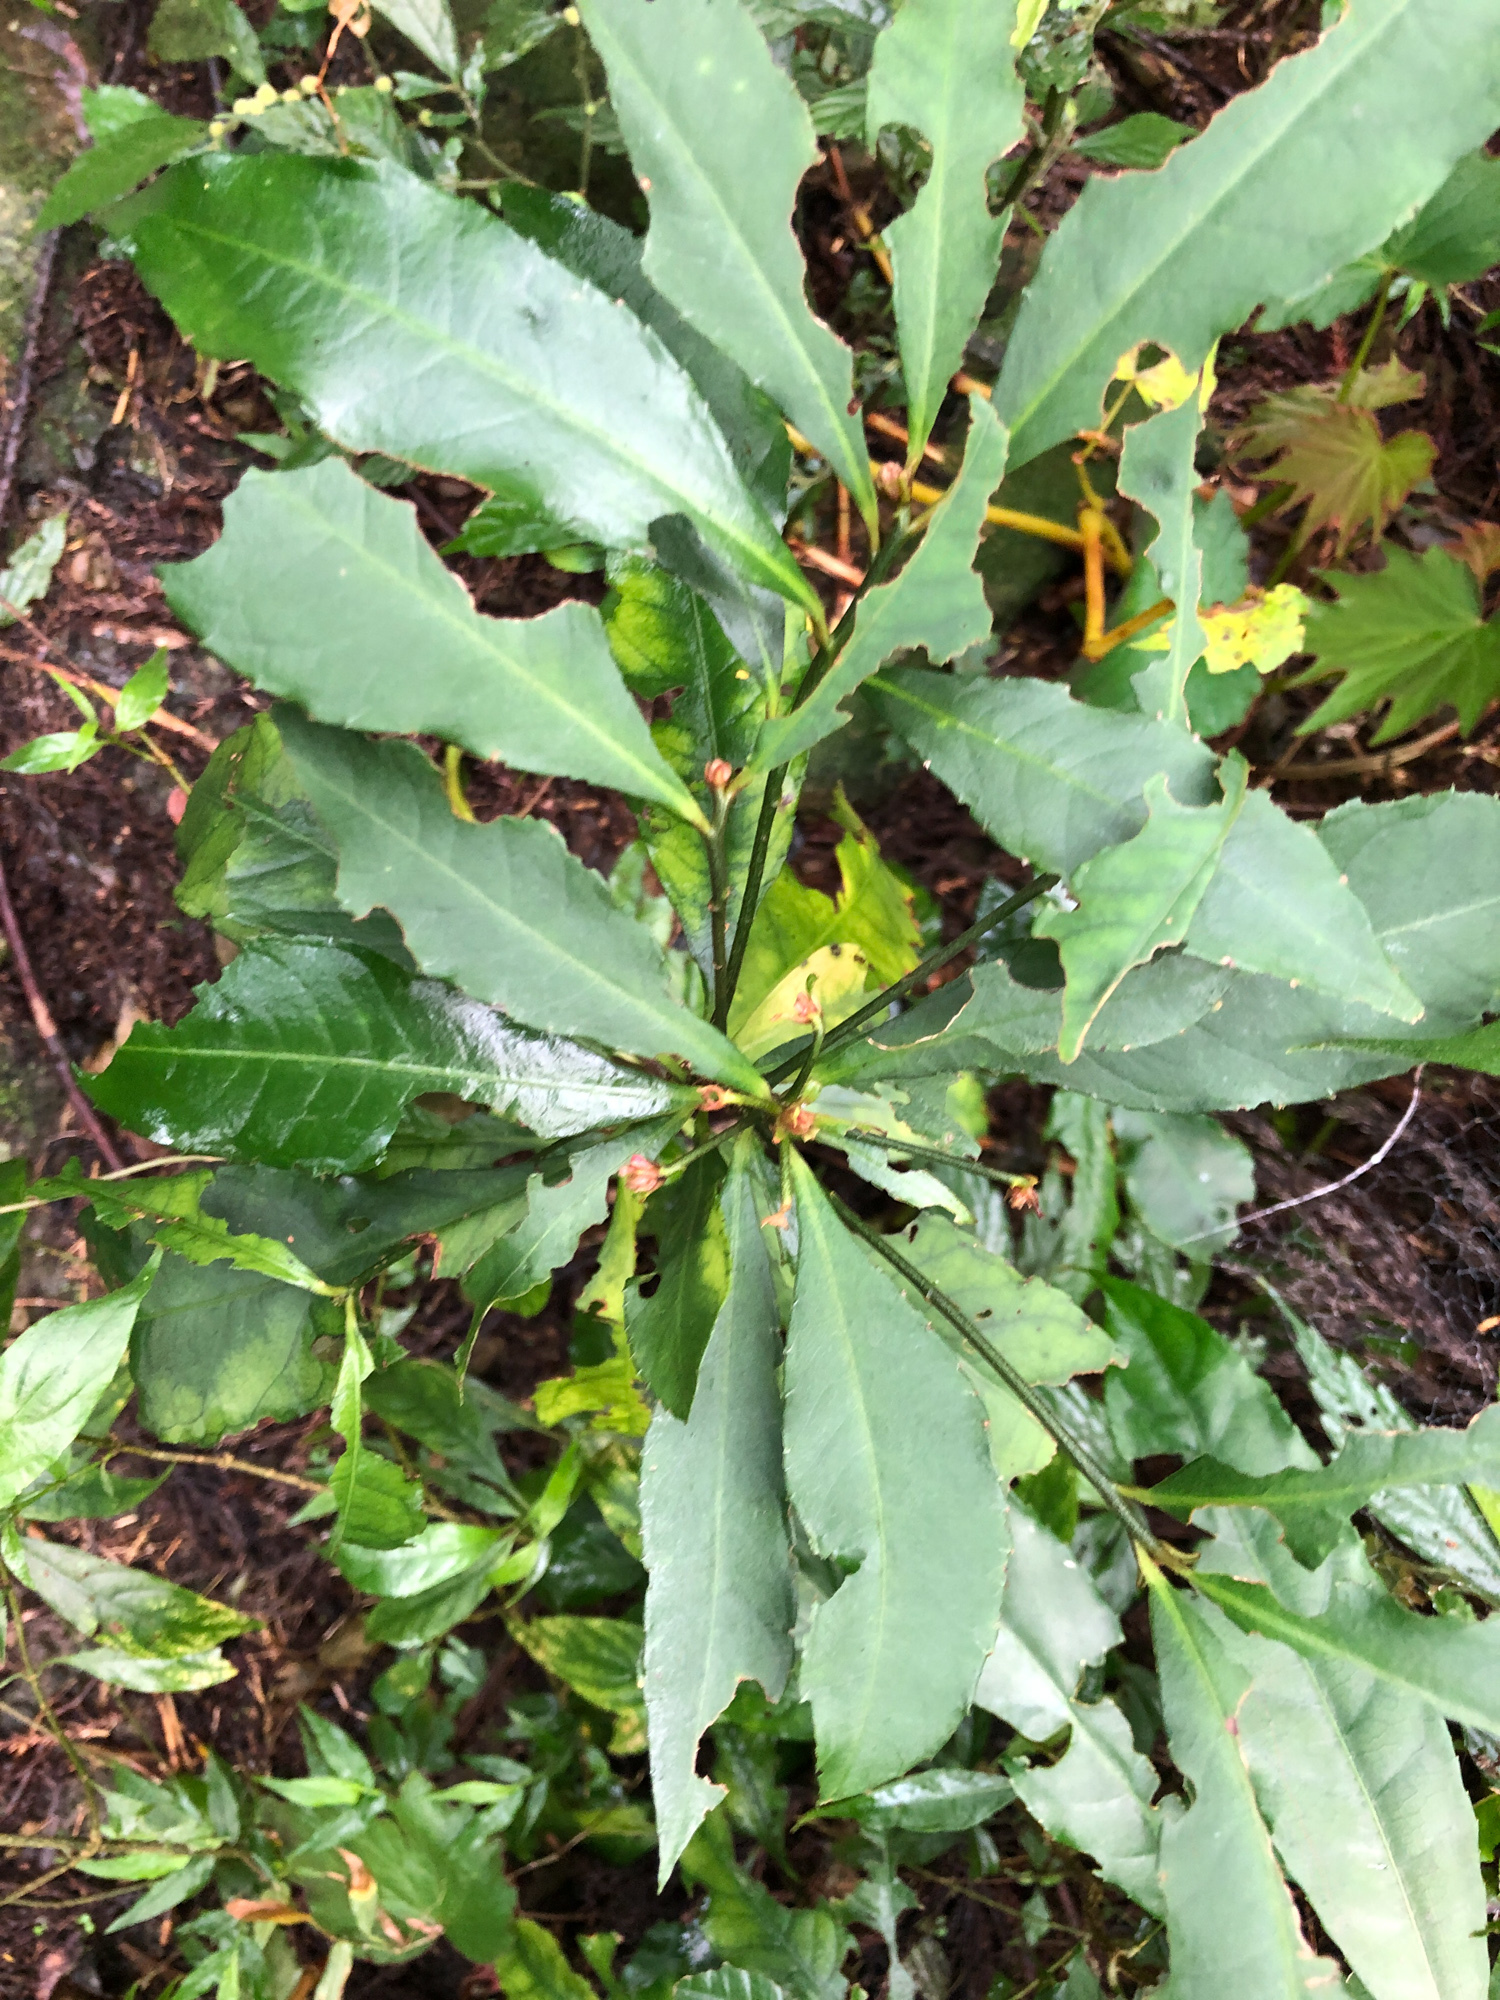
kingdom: Plantae
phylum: Tracheophyta
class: Magnoliopsida
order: Ericales
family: Primulaceae
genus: Ardisia
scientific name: Ardisia cornudentata
